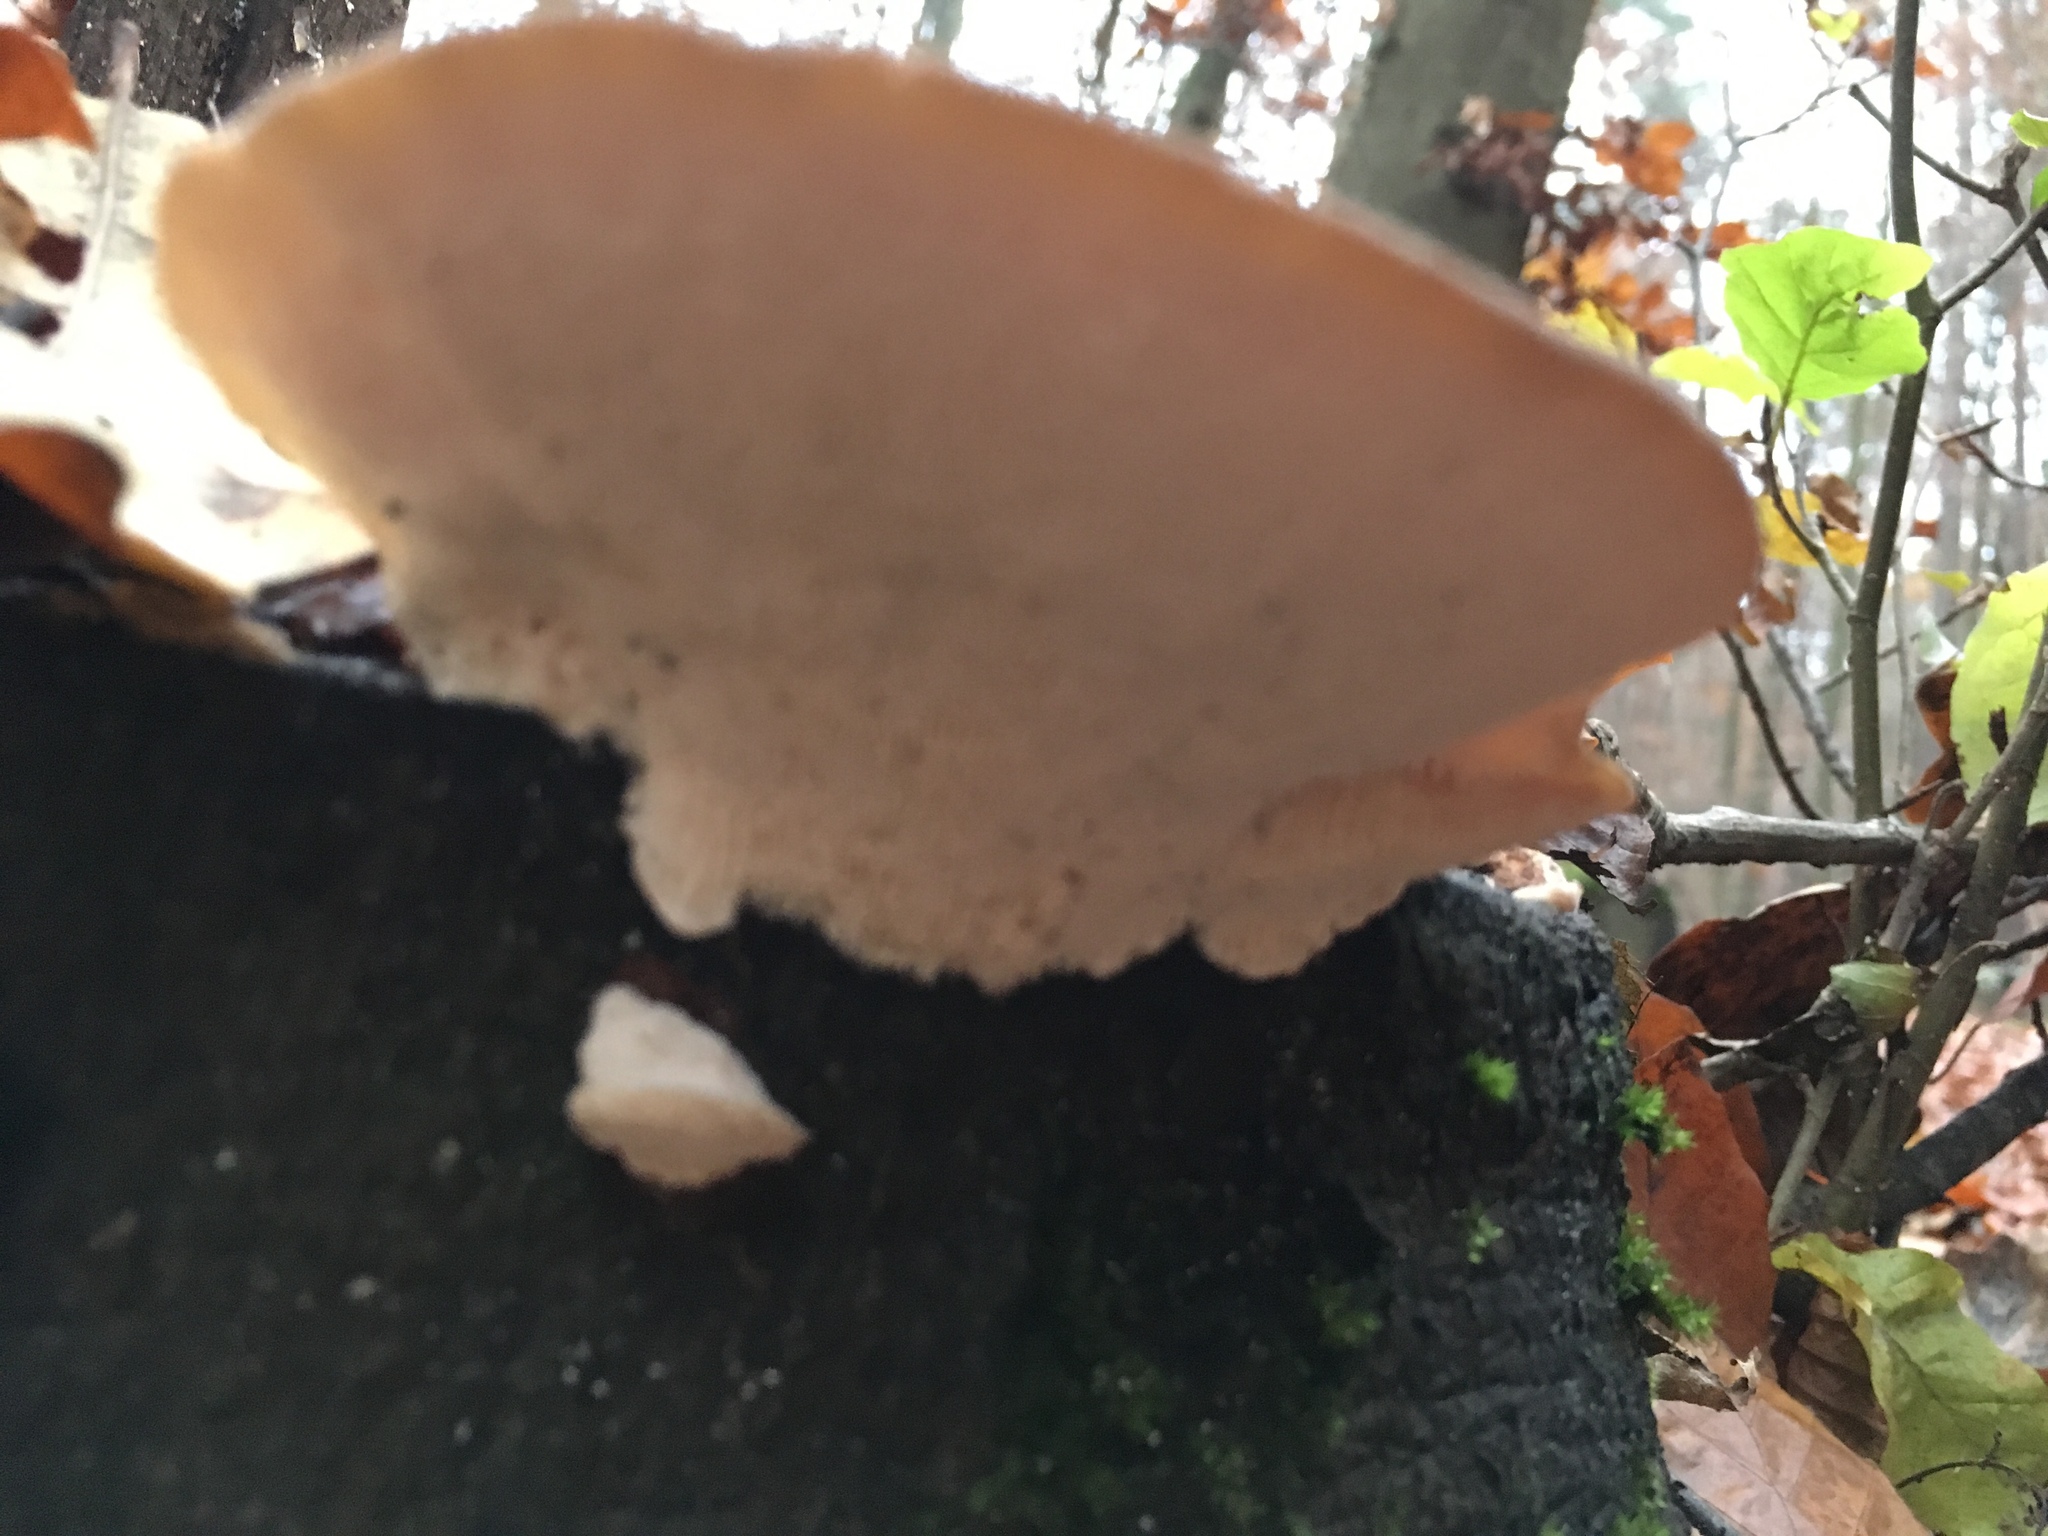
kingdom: Fungi
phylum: Basidiomycota
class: Agaricomycetes
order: Polyporales
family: Polyporaceae
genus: Trametes
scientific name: Trametes gibbosa
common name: Lumpy bracket
